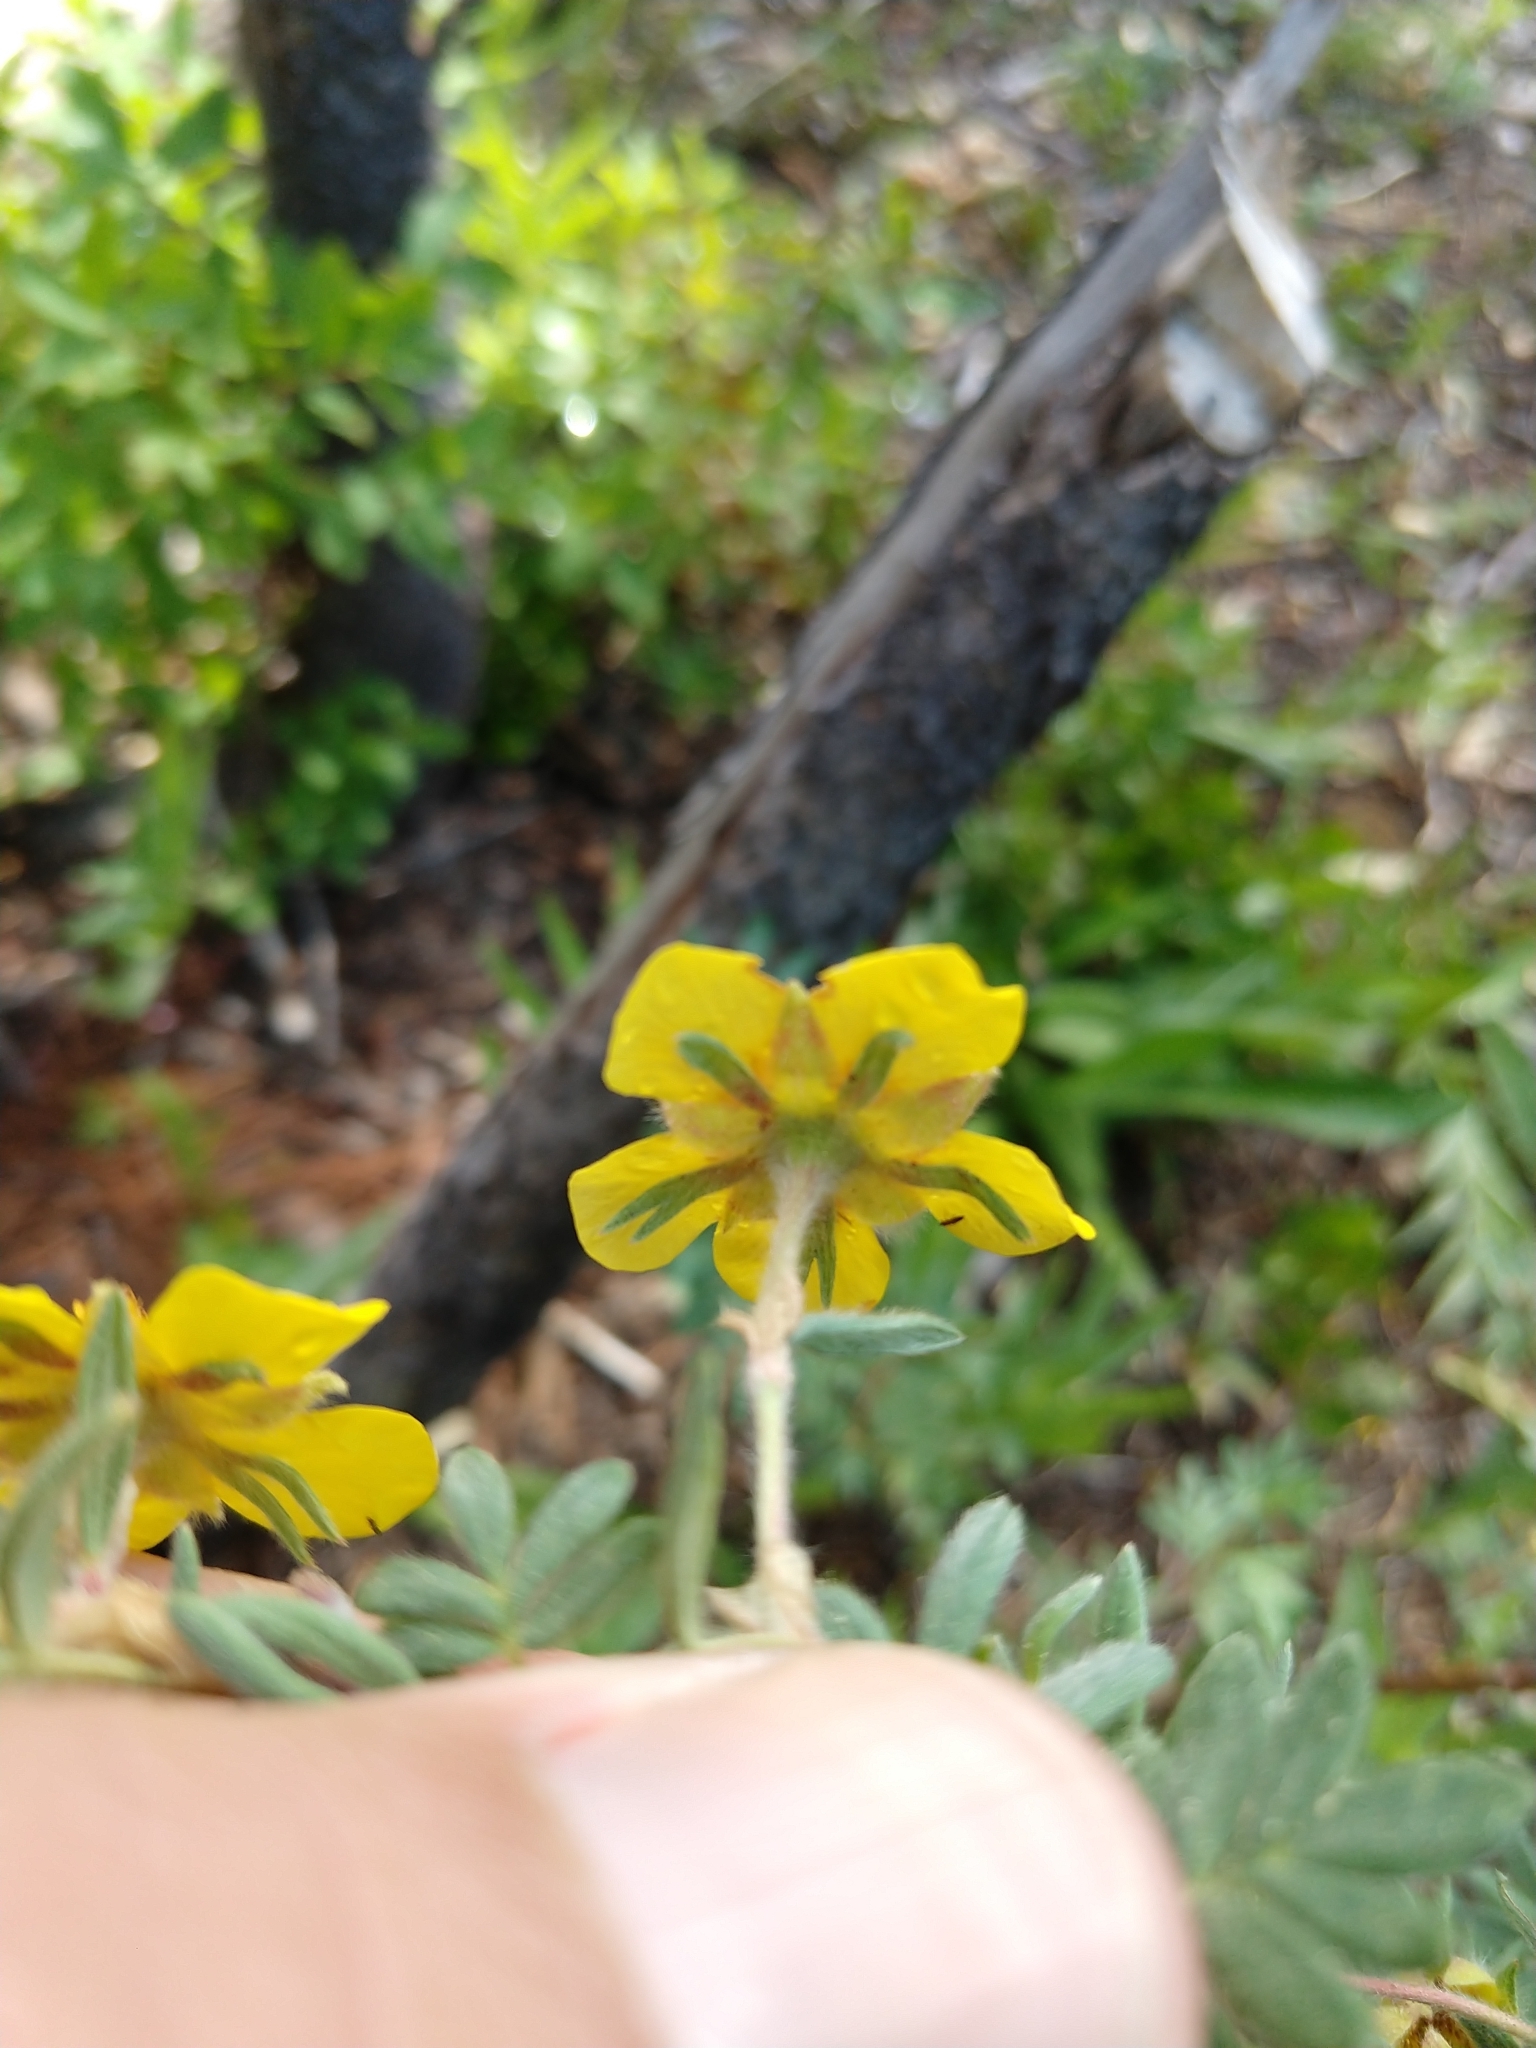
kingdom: Plantae
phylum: Tracheophyta
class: Magnoliopsida
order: Rosales
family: Rosaceae
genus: Dasiphora
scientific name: Dasiphora fruticosa
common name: Shrubby cinquefoil
